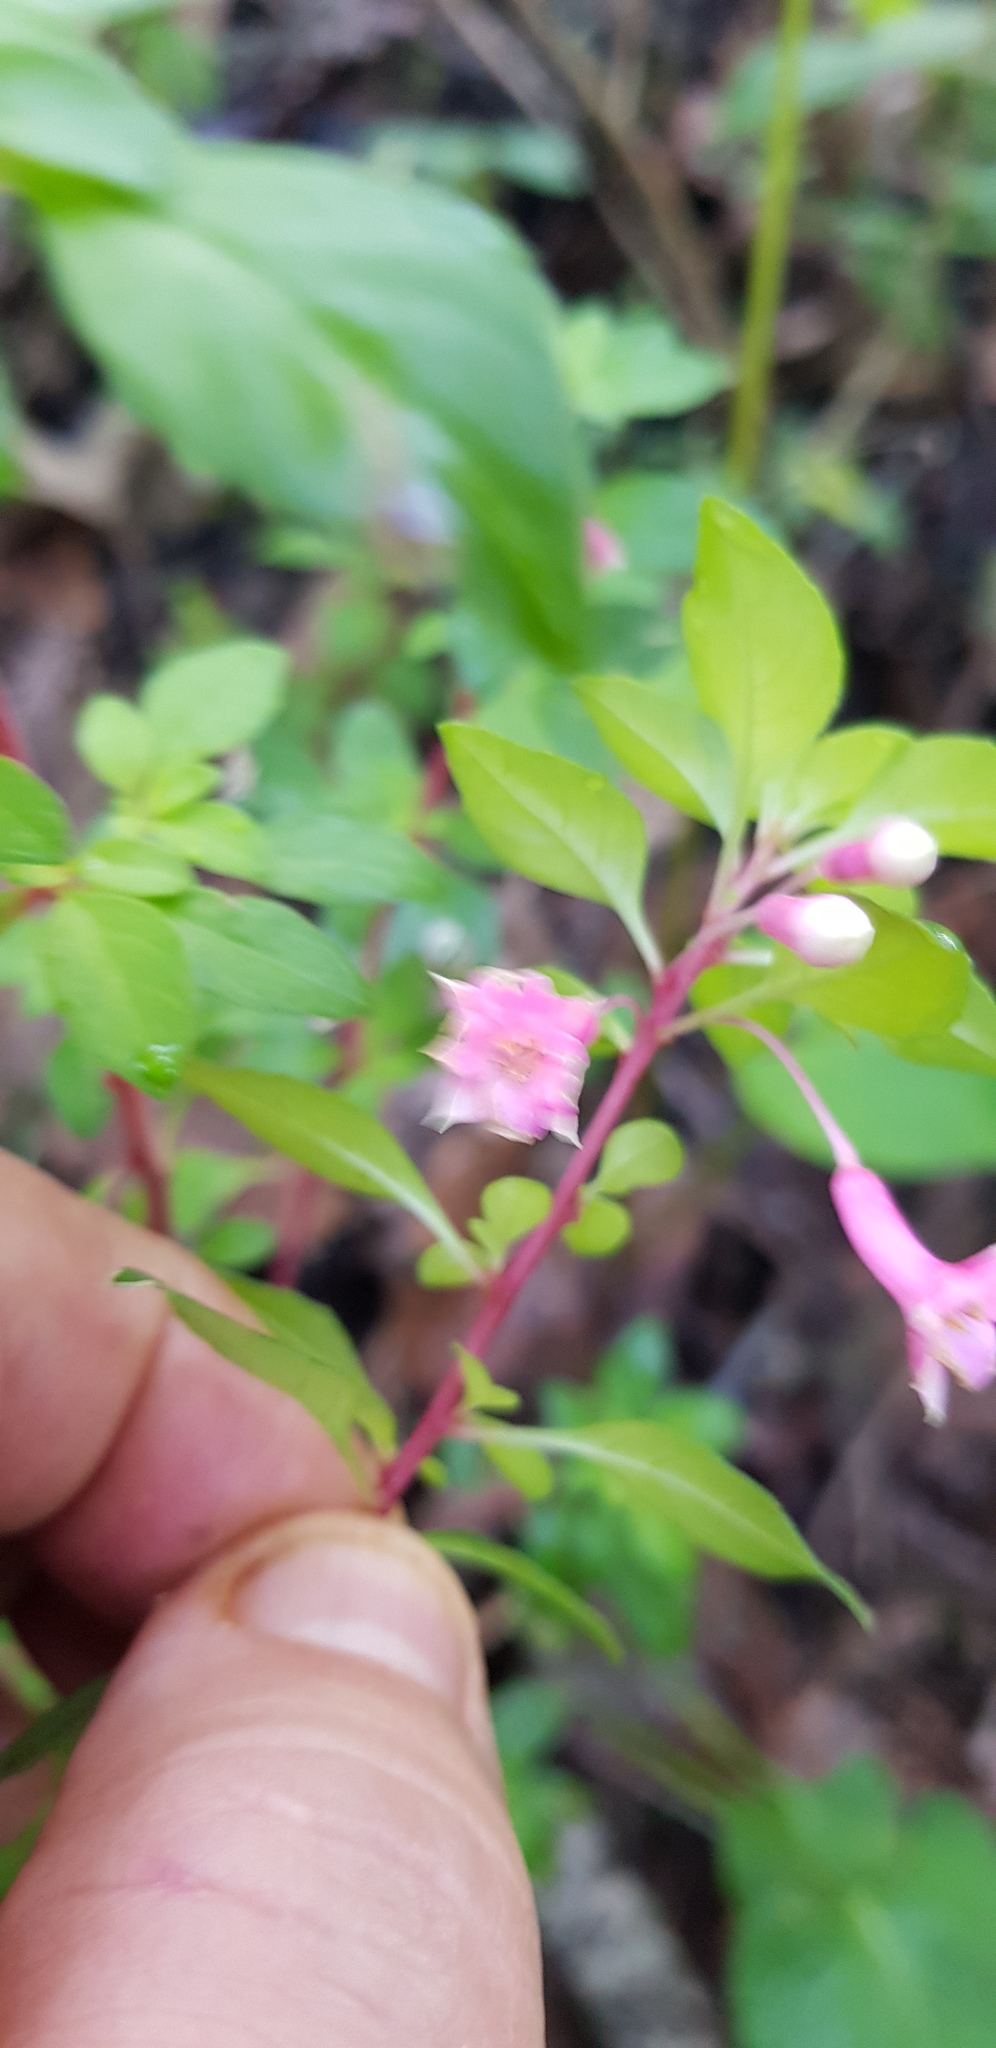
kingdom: Plantae
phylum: Tracheophyta
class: Magnoliopsida
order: Myrtales
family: Onagraceae
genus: Fuchsia
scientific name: Fuchsia parviflora
